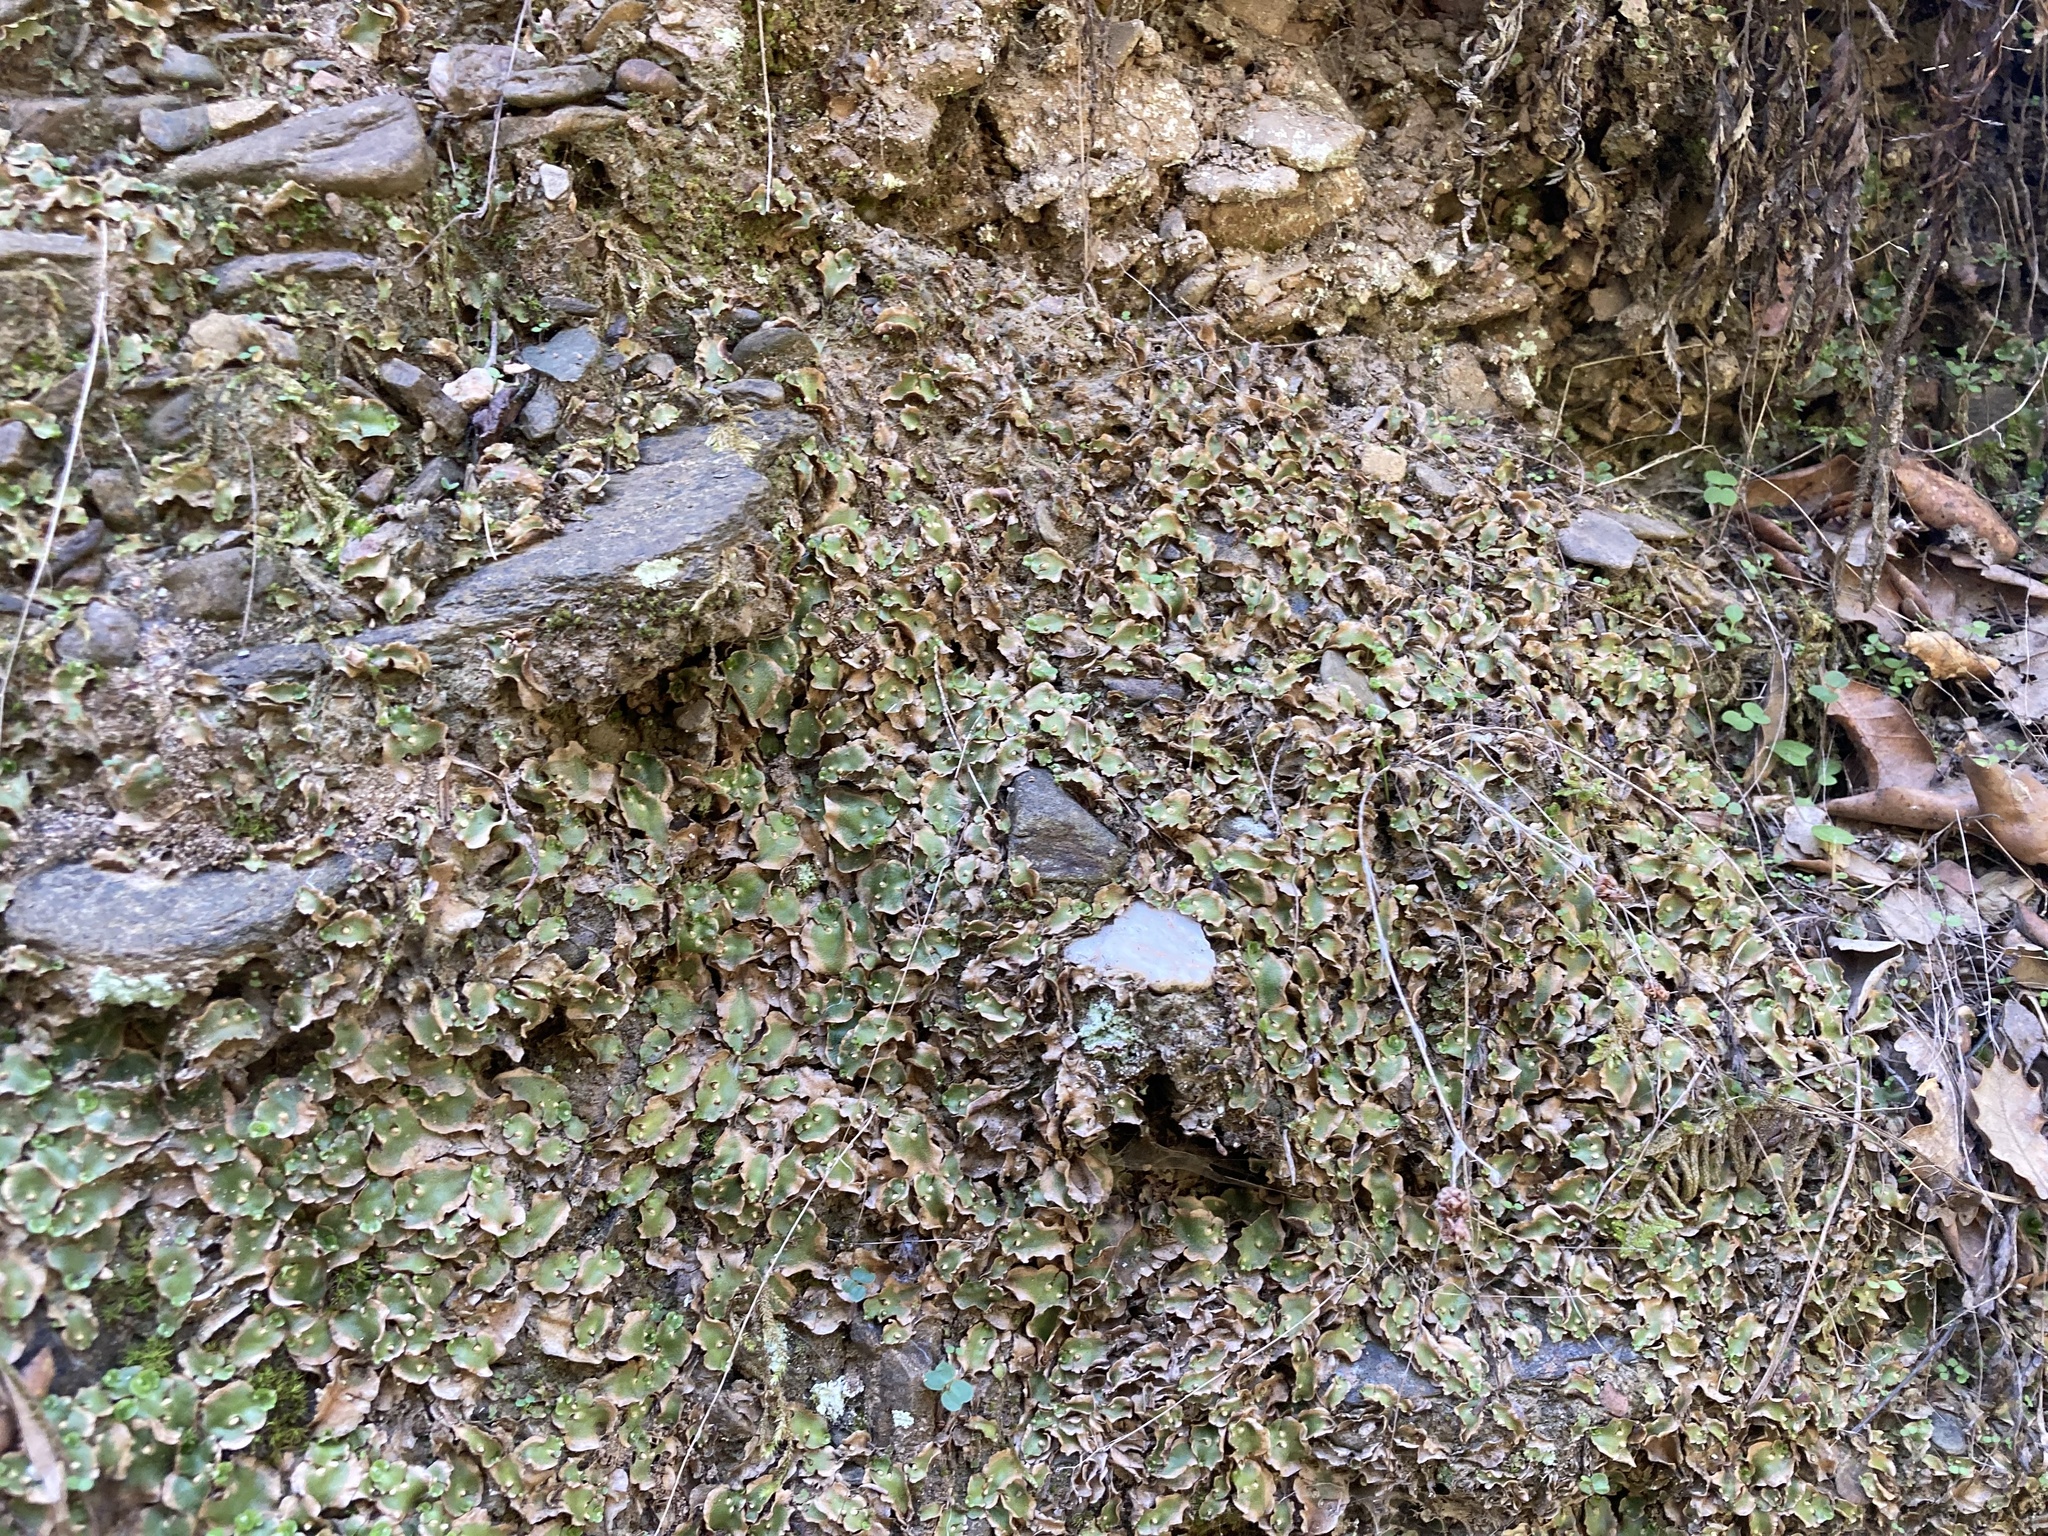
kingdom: Plantae
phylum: Marchantiophyta
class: Marchantiopsida
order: Lunulariales
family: Lunulariaceae
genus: Lunularia
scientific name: Lunularia cruciata
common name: Crescent-cup liverwort
